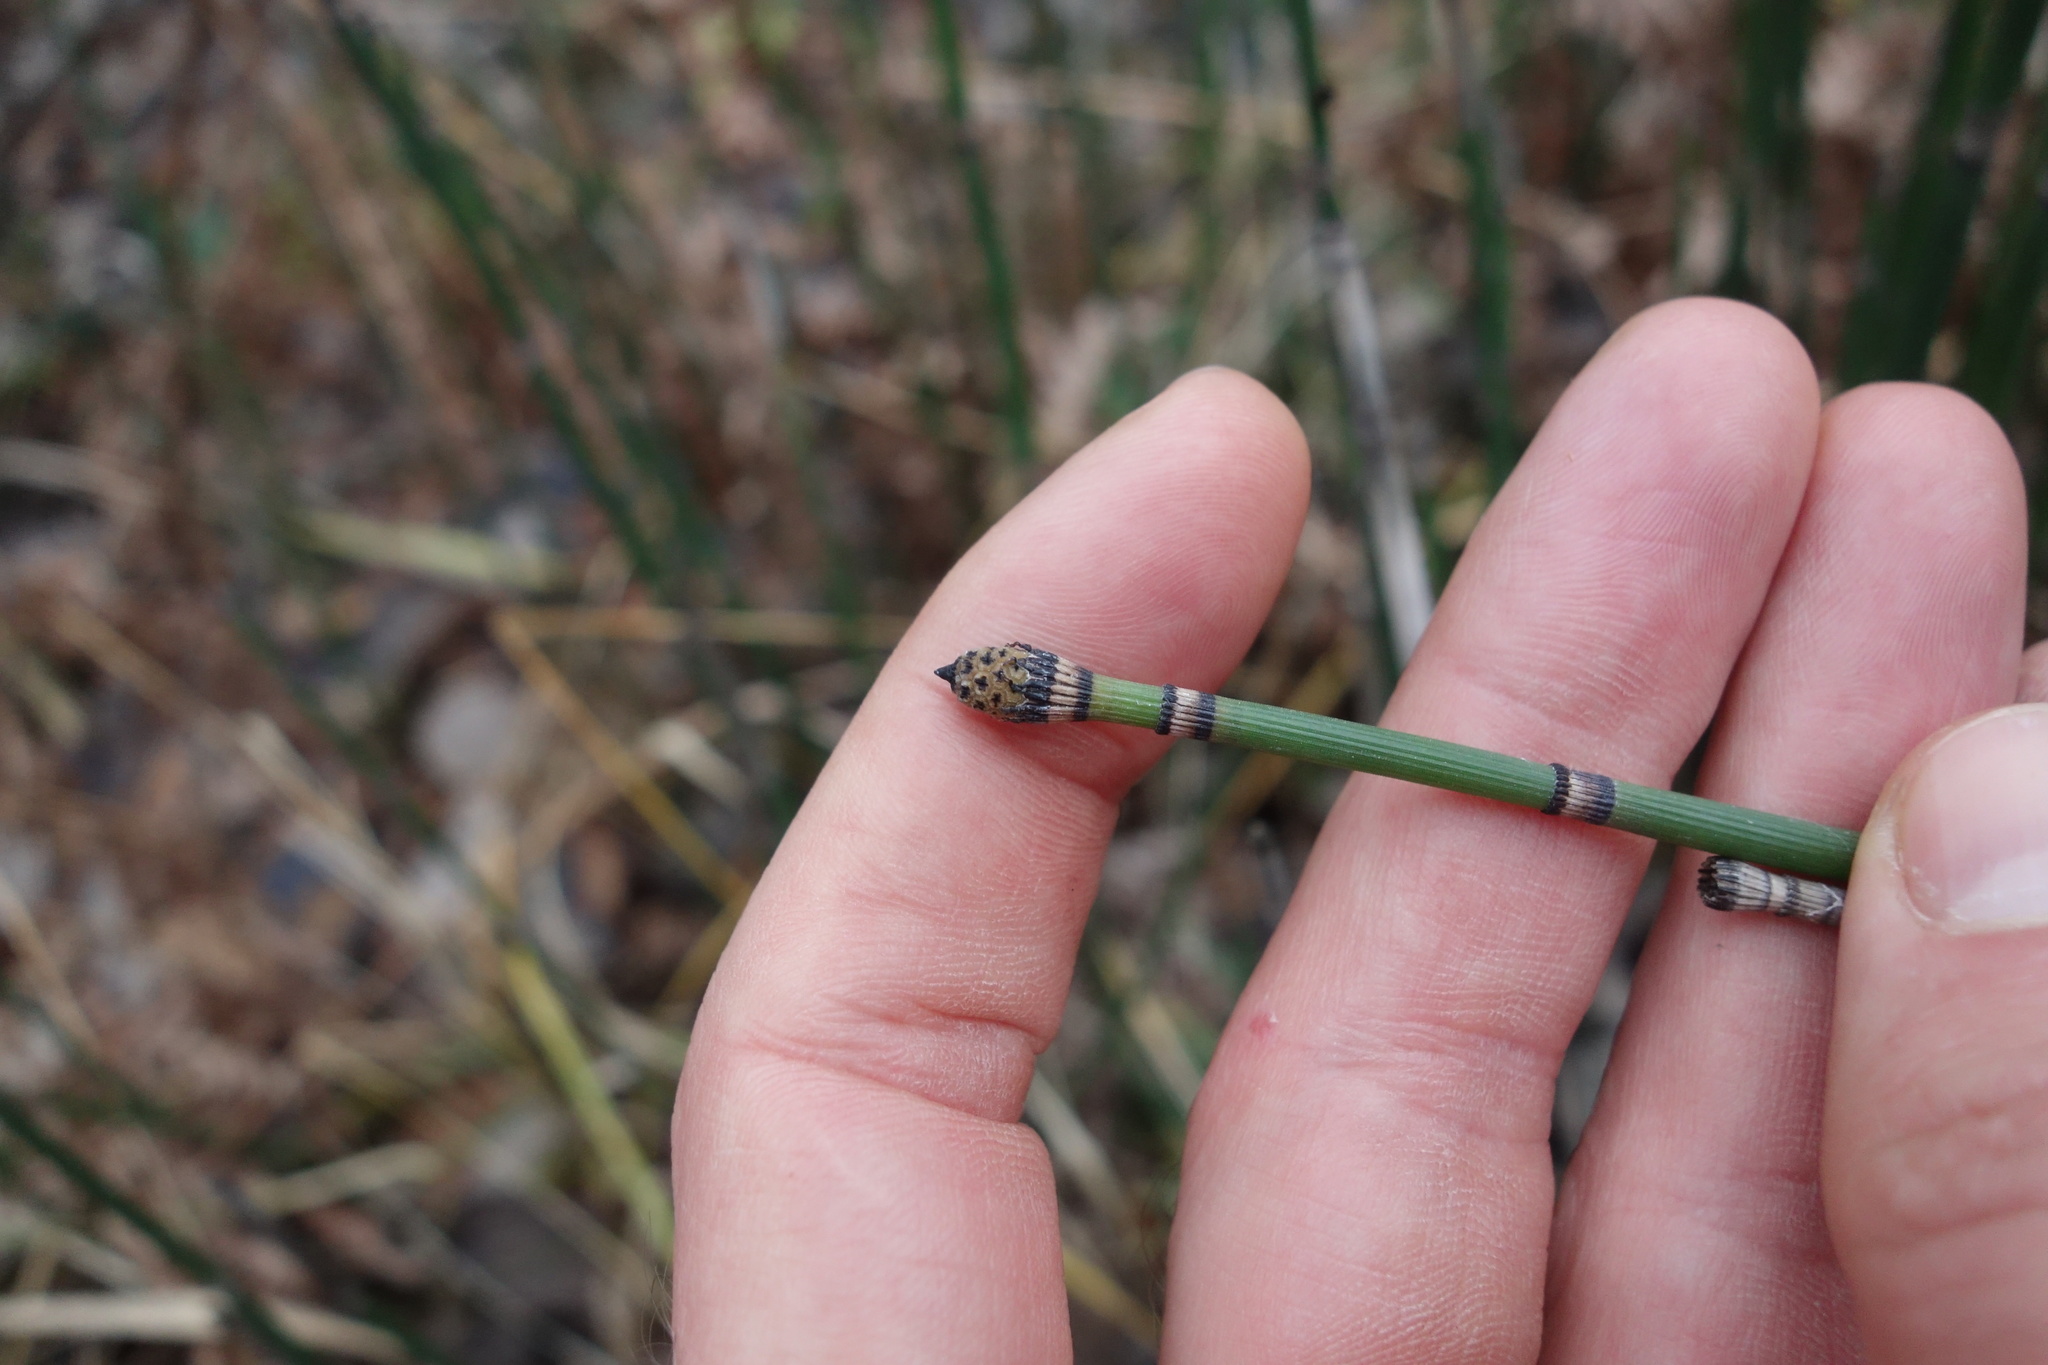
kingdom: Plantae
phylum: Tracheophyta
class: Polypodiopsida
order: Equisetales
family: Equisetaceae
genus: Equisetum
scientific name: Equisetum hyemale
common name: Rough horsetail
